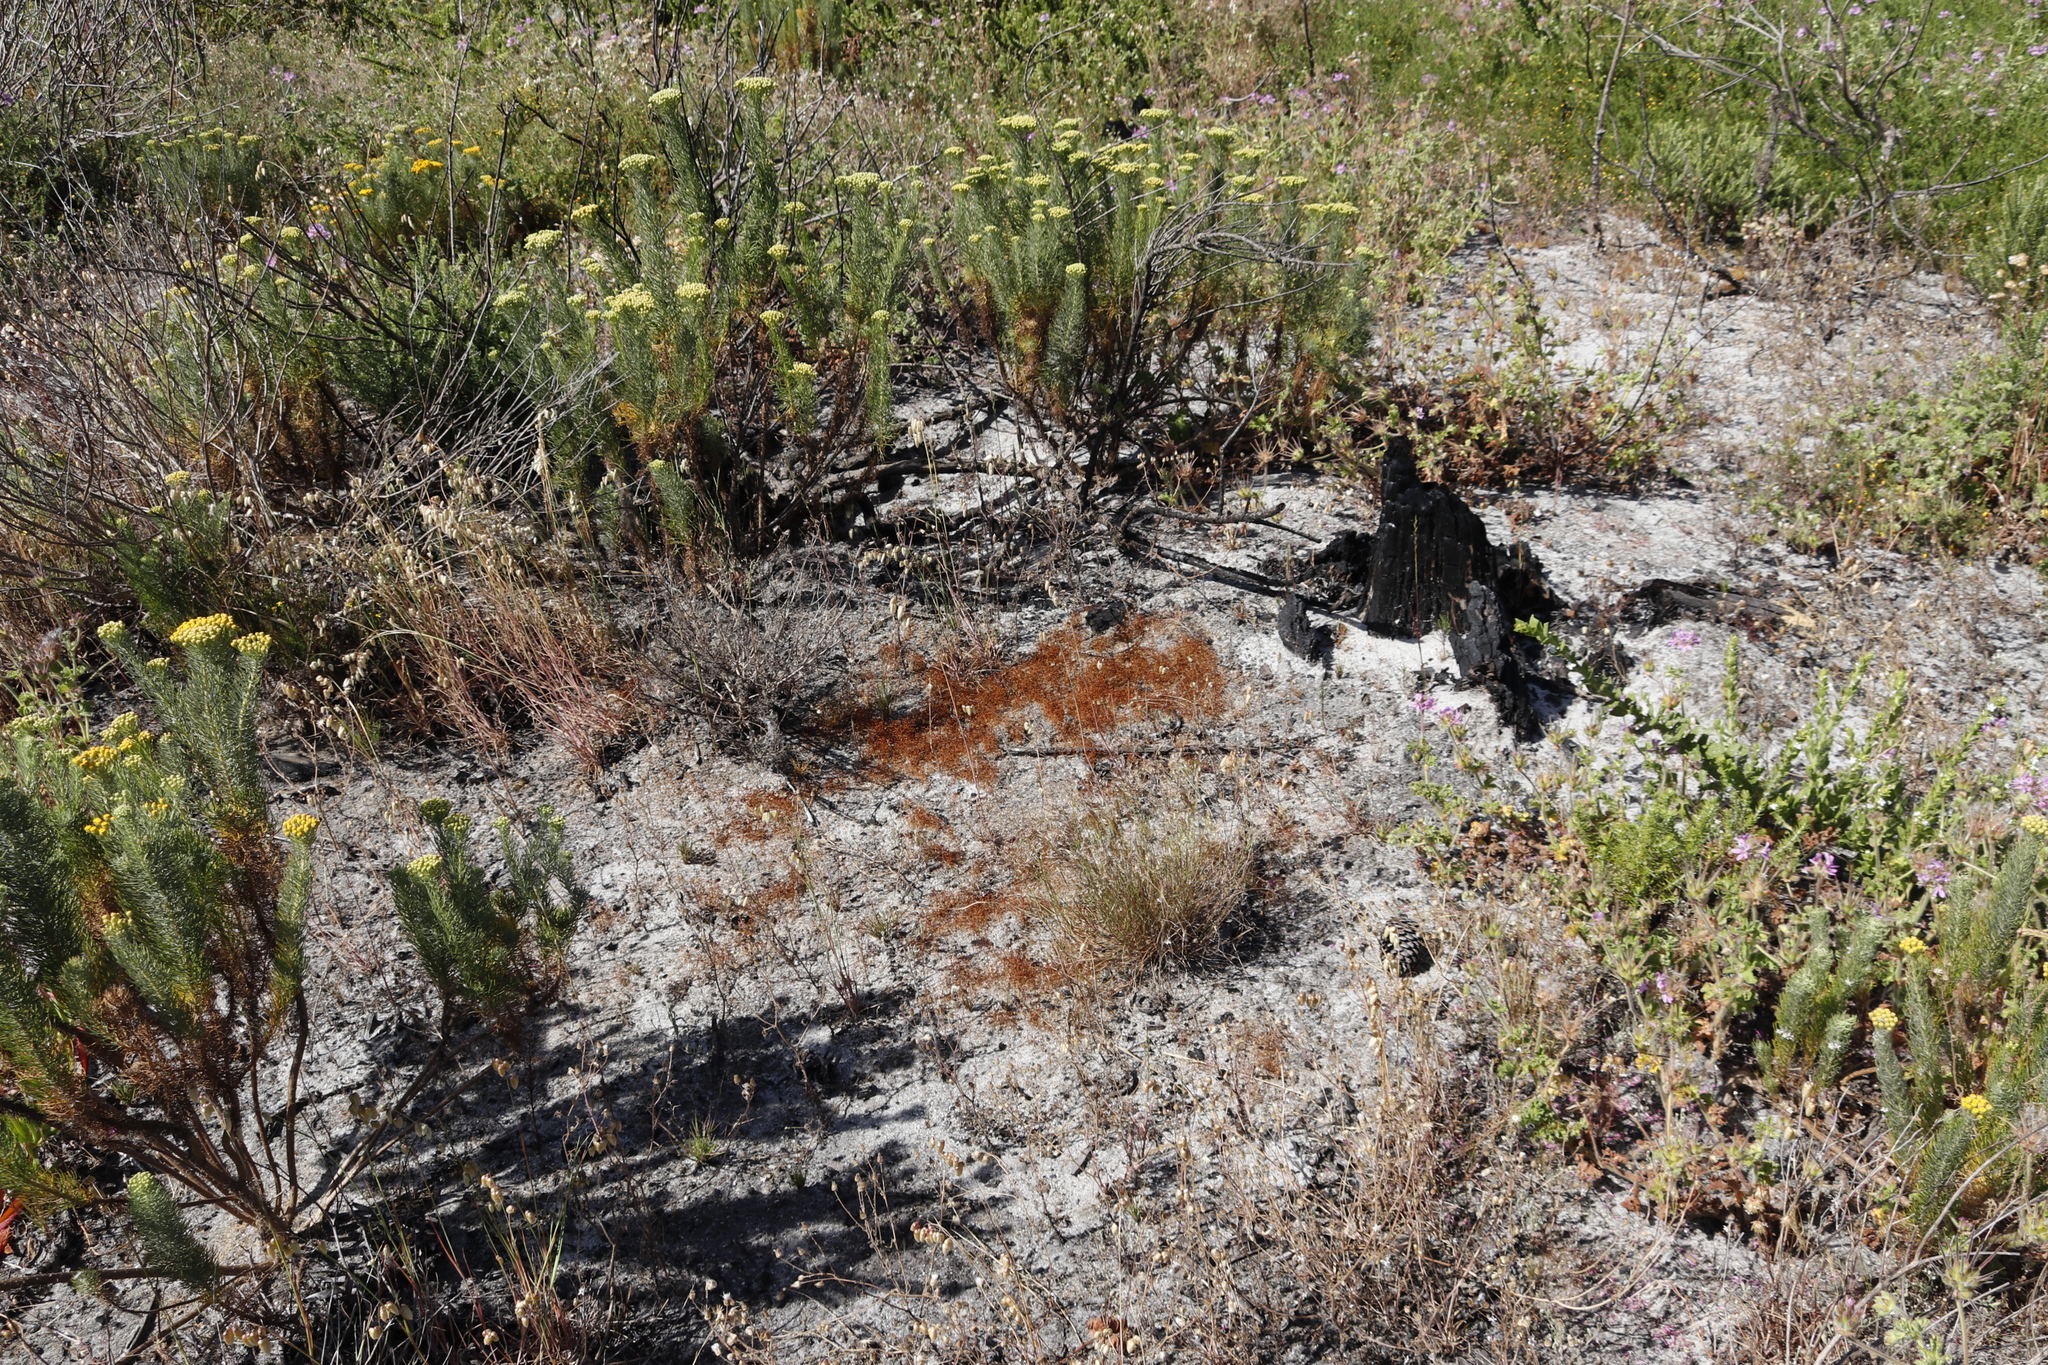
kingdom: Plantae
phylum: Bryophyta
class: Bryopsida
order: Funariales
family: Funariaceae
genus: Funaria
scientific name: Funaria hygrometrica
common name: Common cord moss
